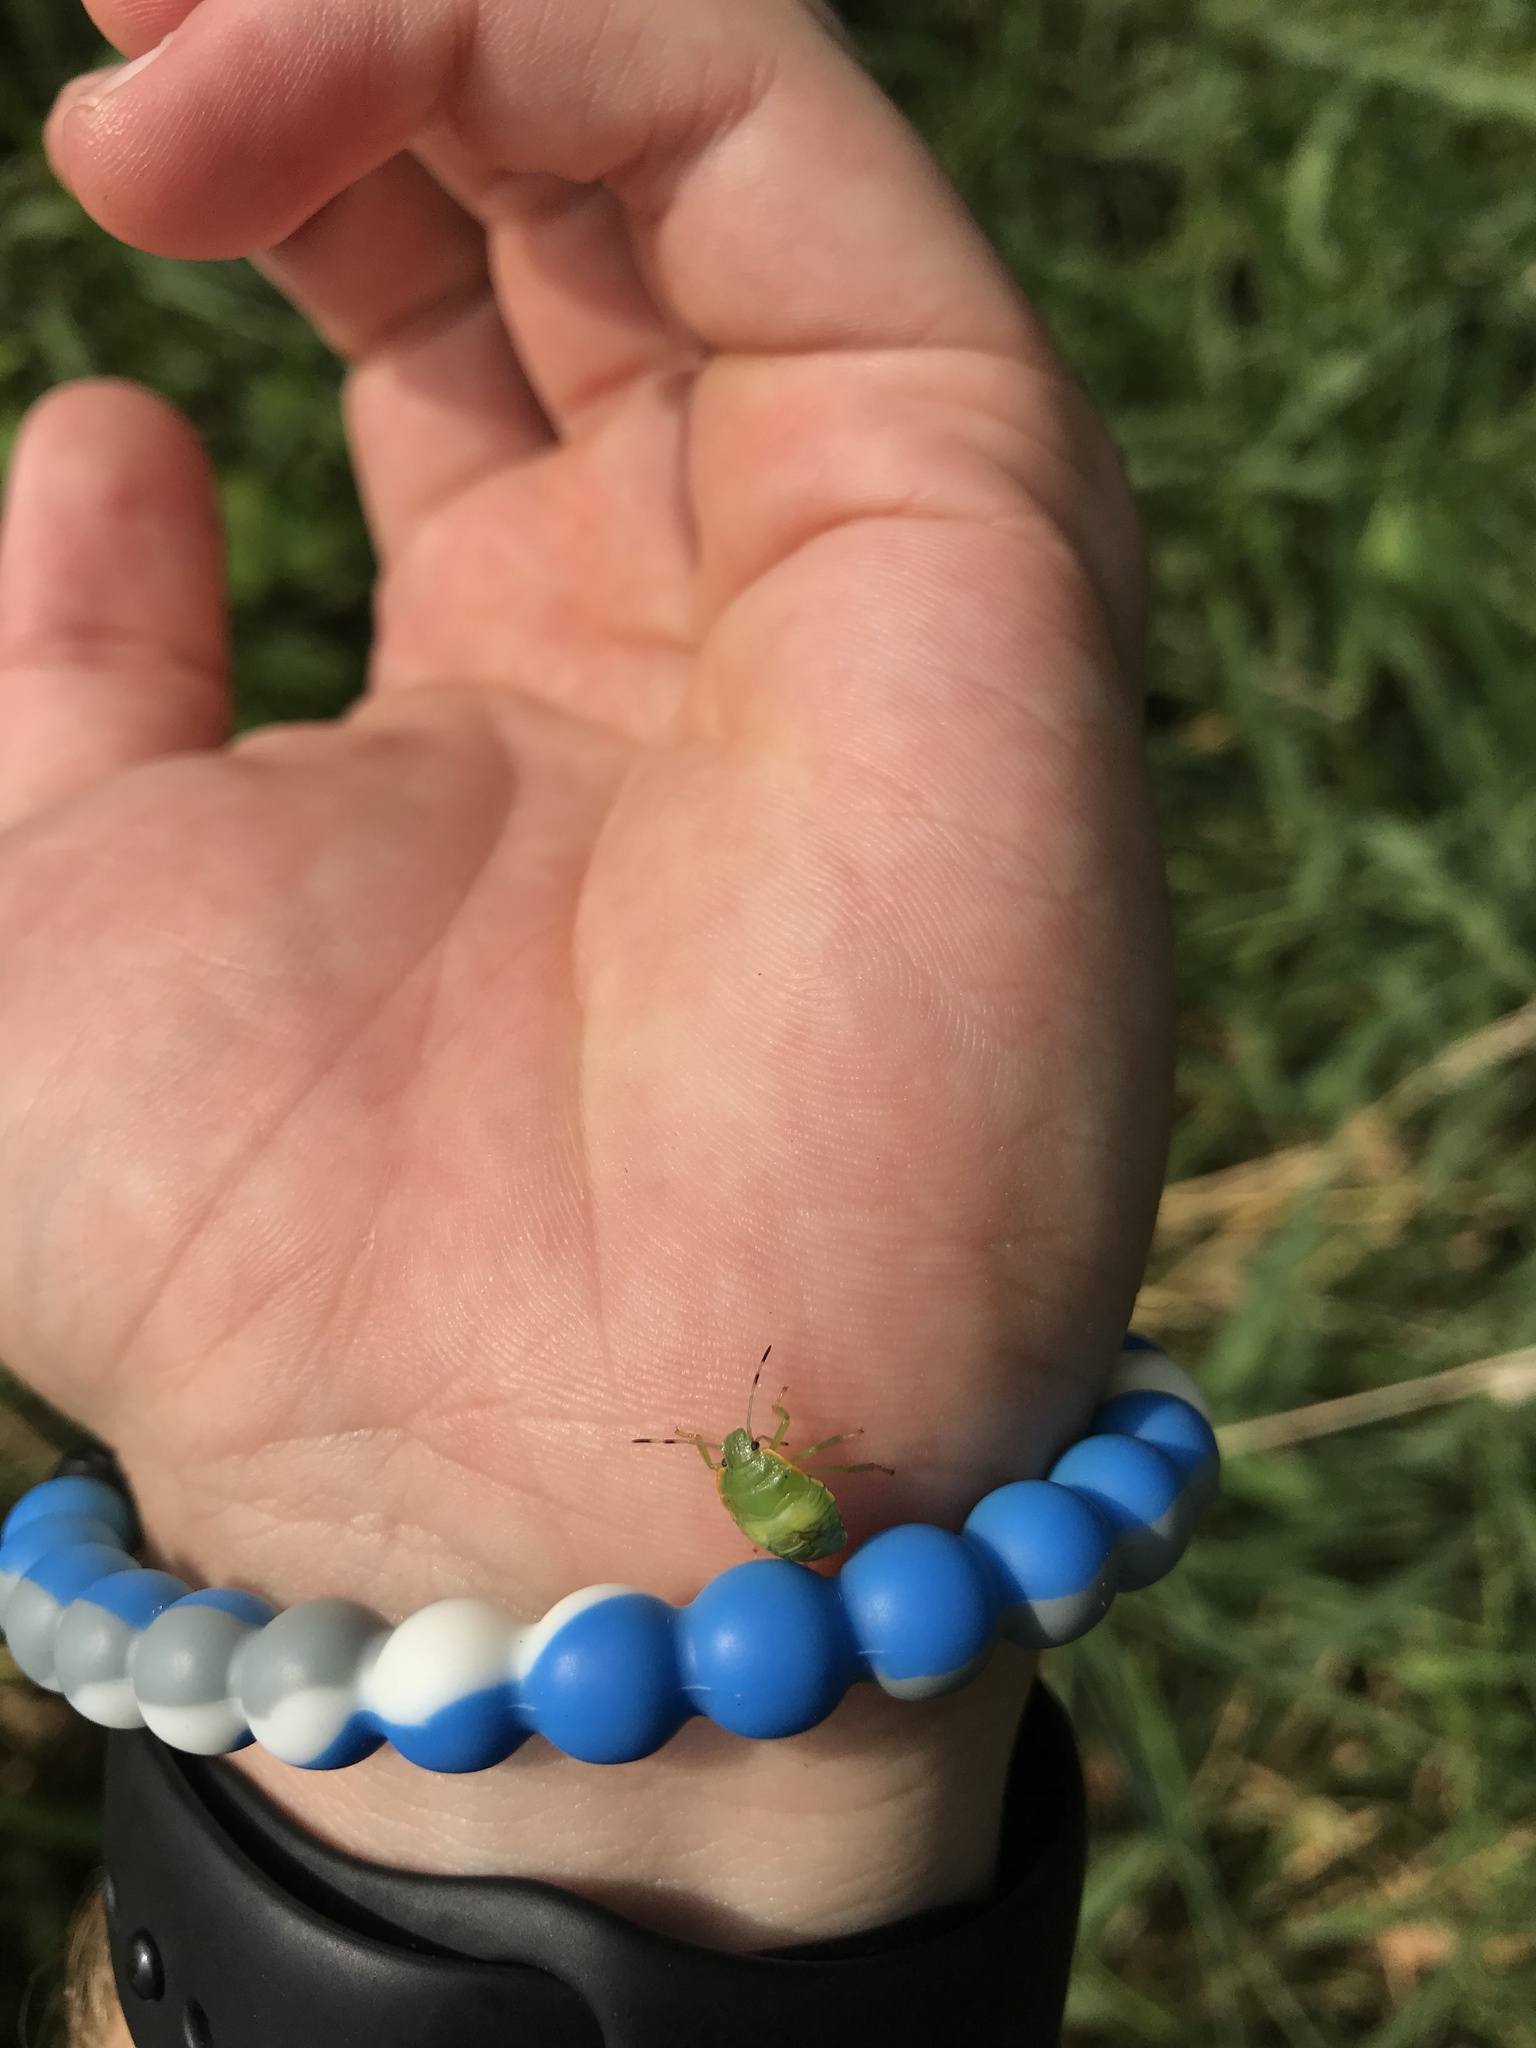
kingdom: Animalia
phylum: Arthropoda
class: Insecta
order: Hemiptera
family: Pentatomidae
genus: Chinavia
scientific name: Chinavia hilaris
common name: Green stink bug
